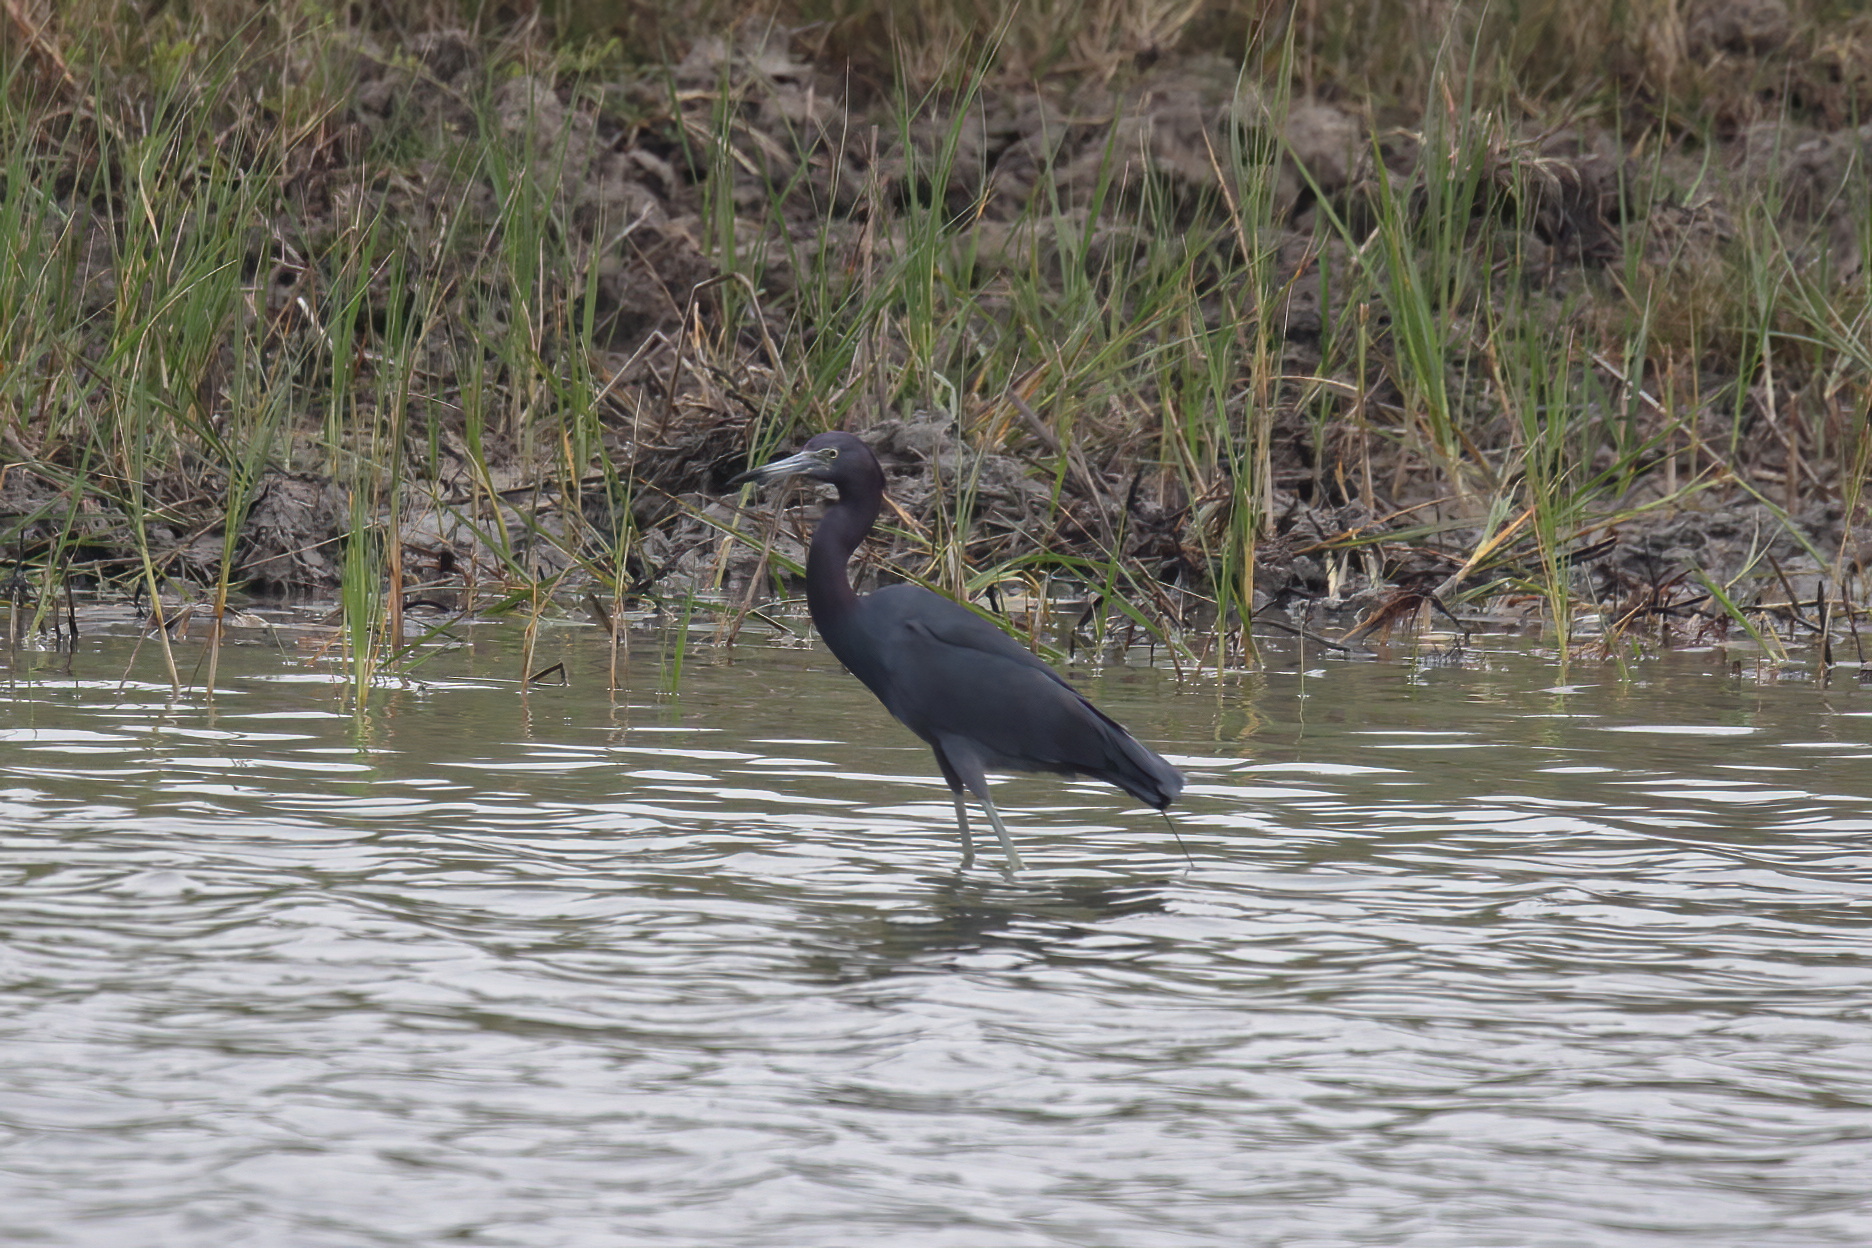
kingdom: Animalia
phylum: Chordata
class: Aves
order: Pelecaniformes
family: Ardeidae
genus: Egretta
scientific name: Egretta caerulea
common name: Little blue heron
